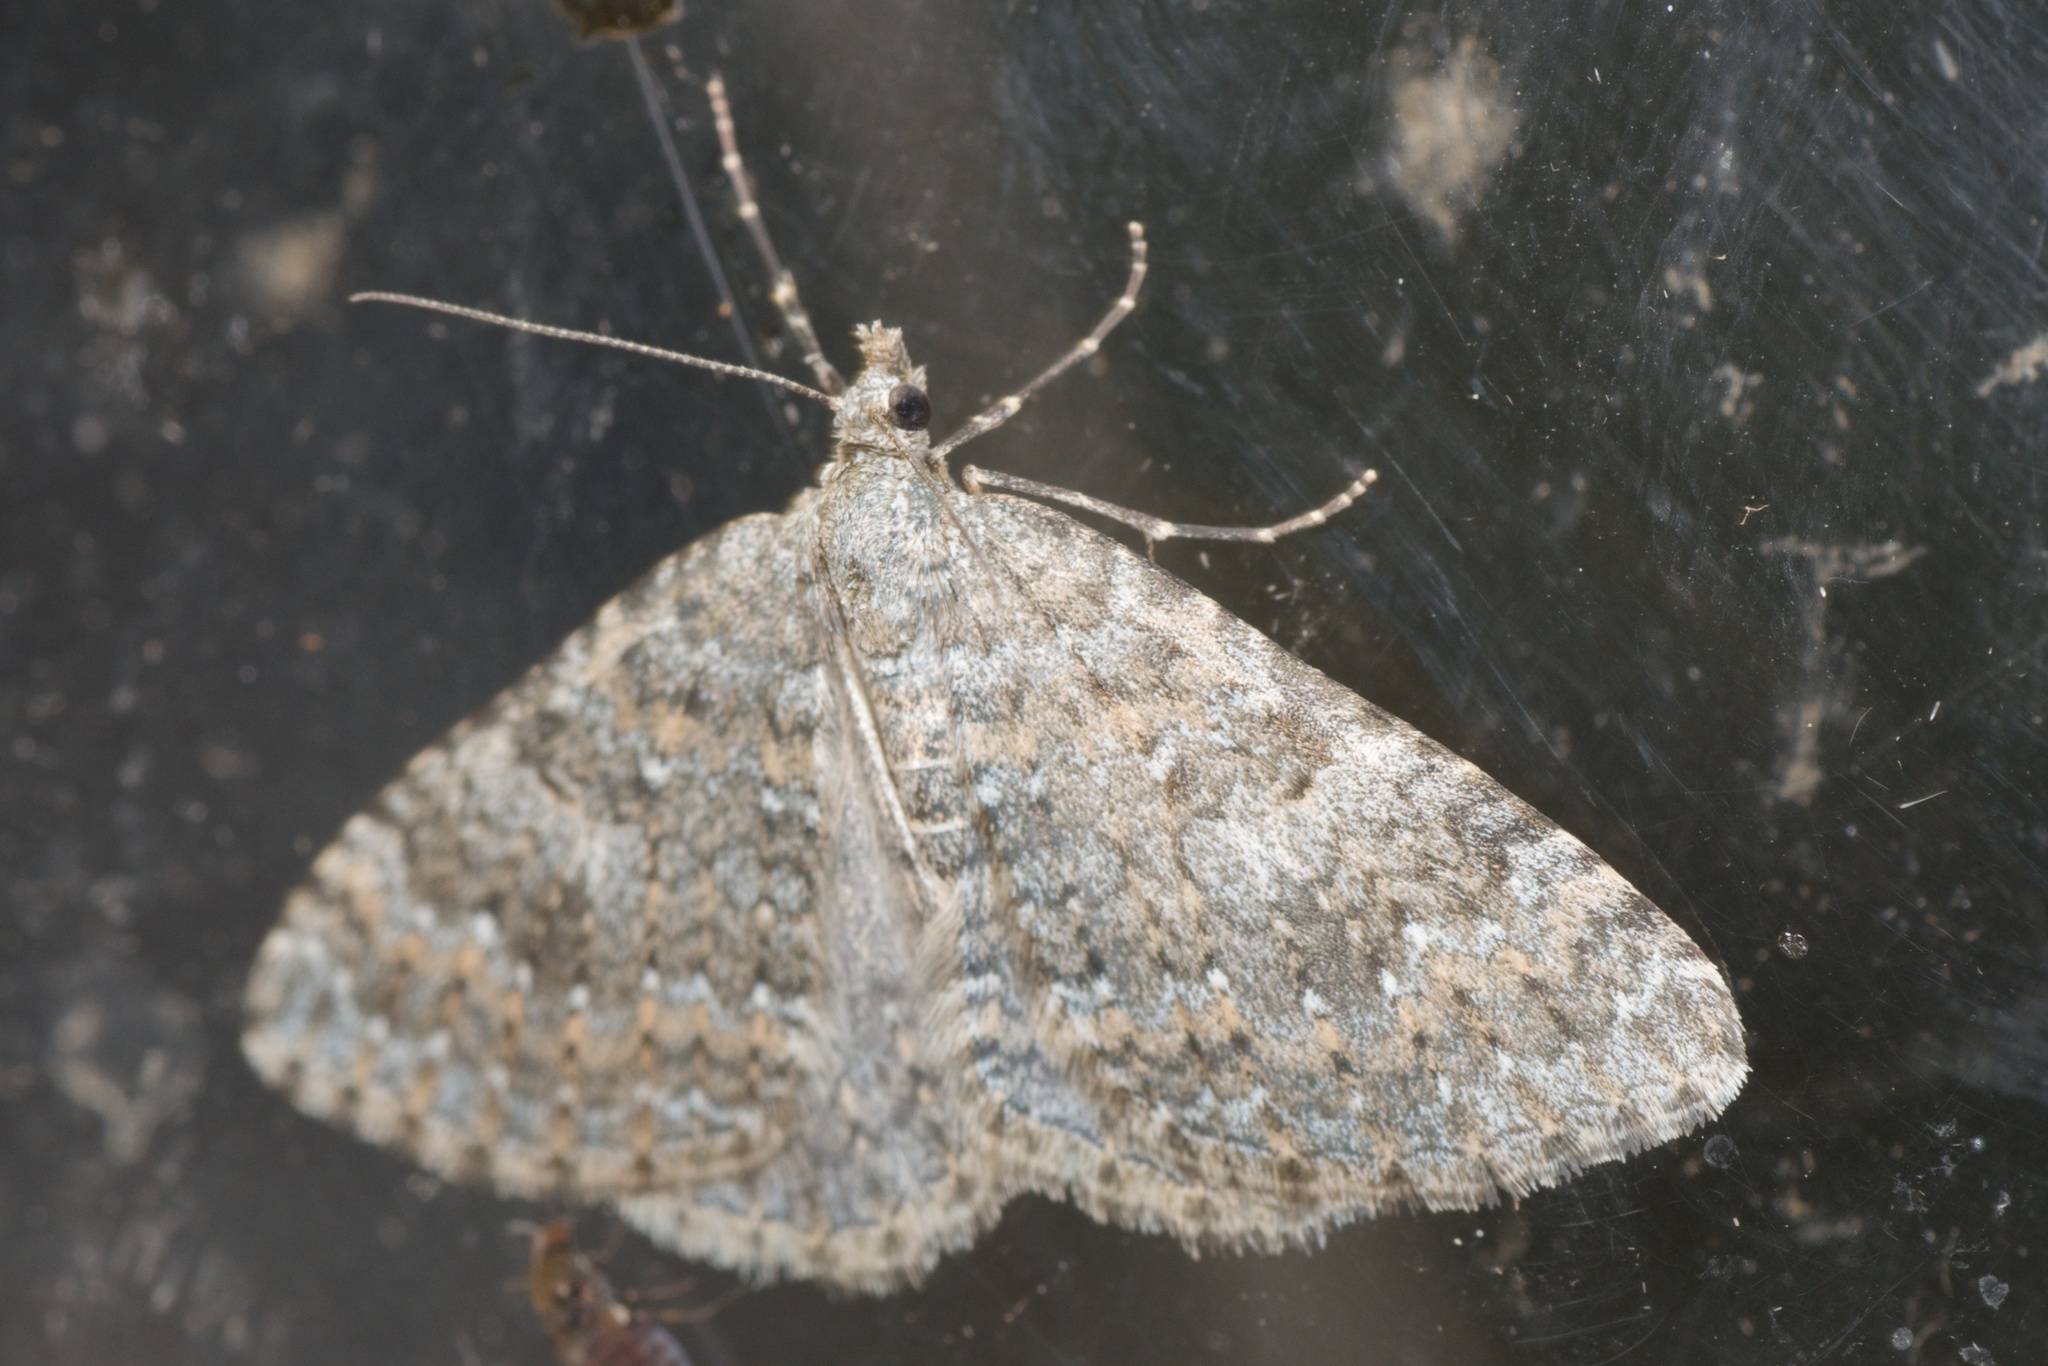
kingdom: Animalia
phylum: Arthropoda
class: Insecta
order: Lepidoptera
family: Geometridae
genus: Helastia
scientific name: Helastia corcularia
